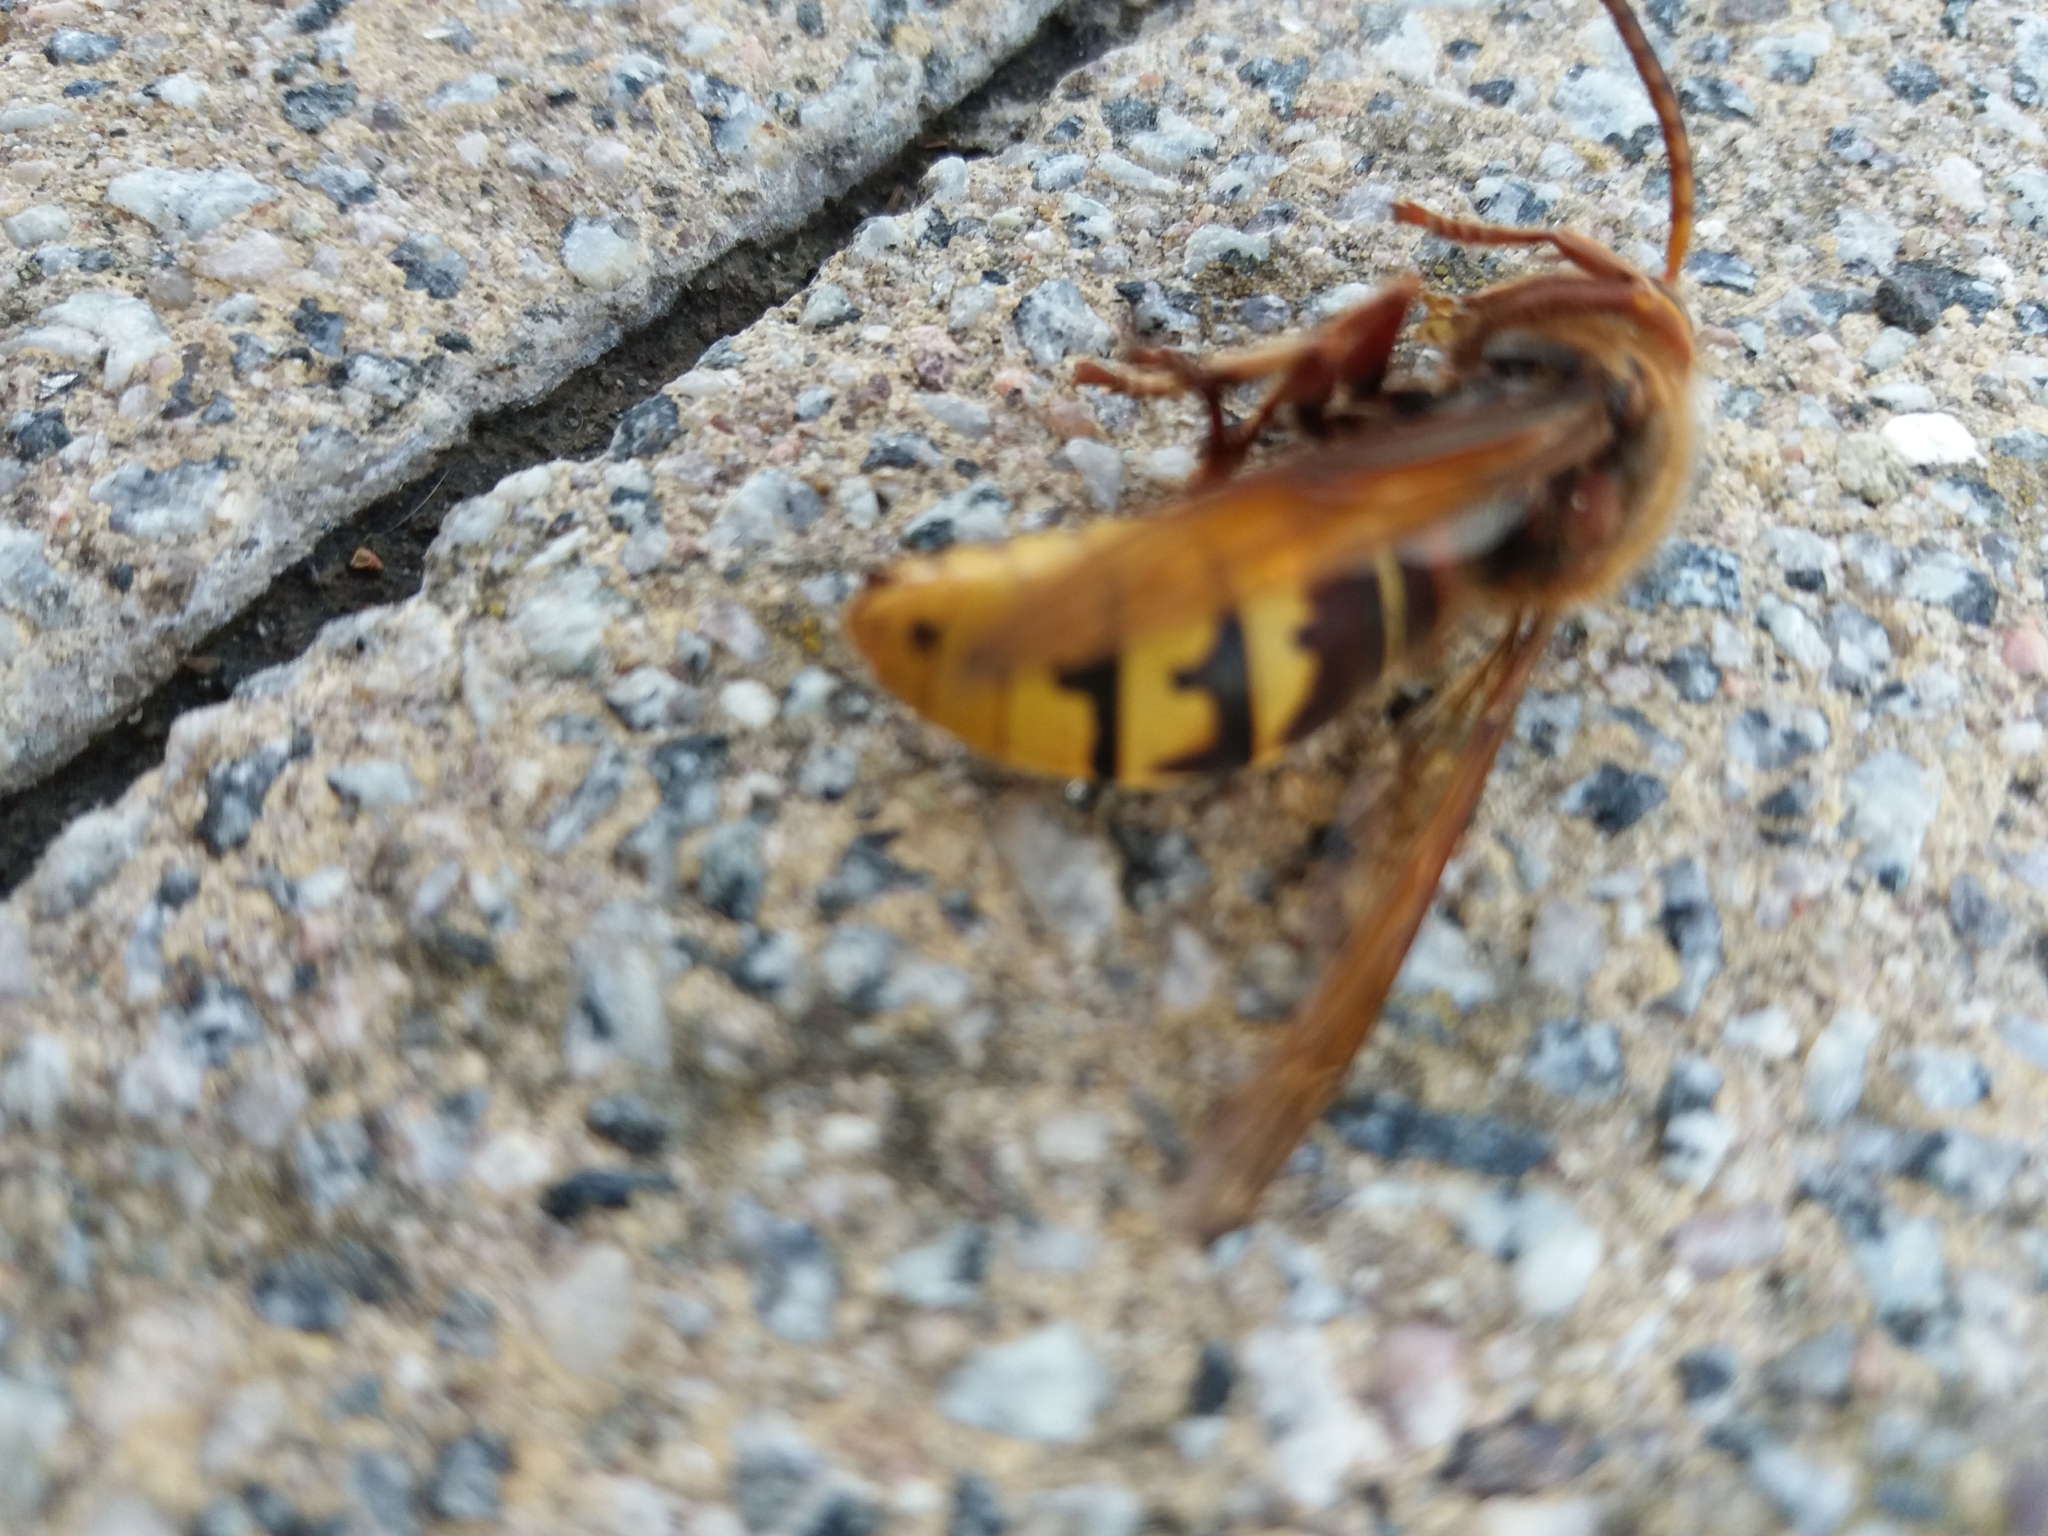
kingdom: Animalia
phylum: Arthropoda
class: Insecta
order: Hymenoptera
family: Vespidae
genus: Vespa
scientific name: Vespa crabro
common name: Hornet
